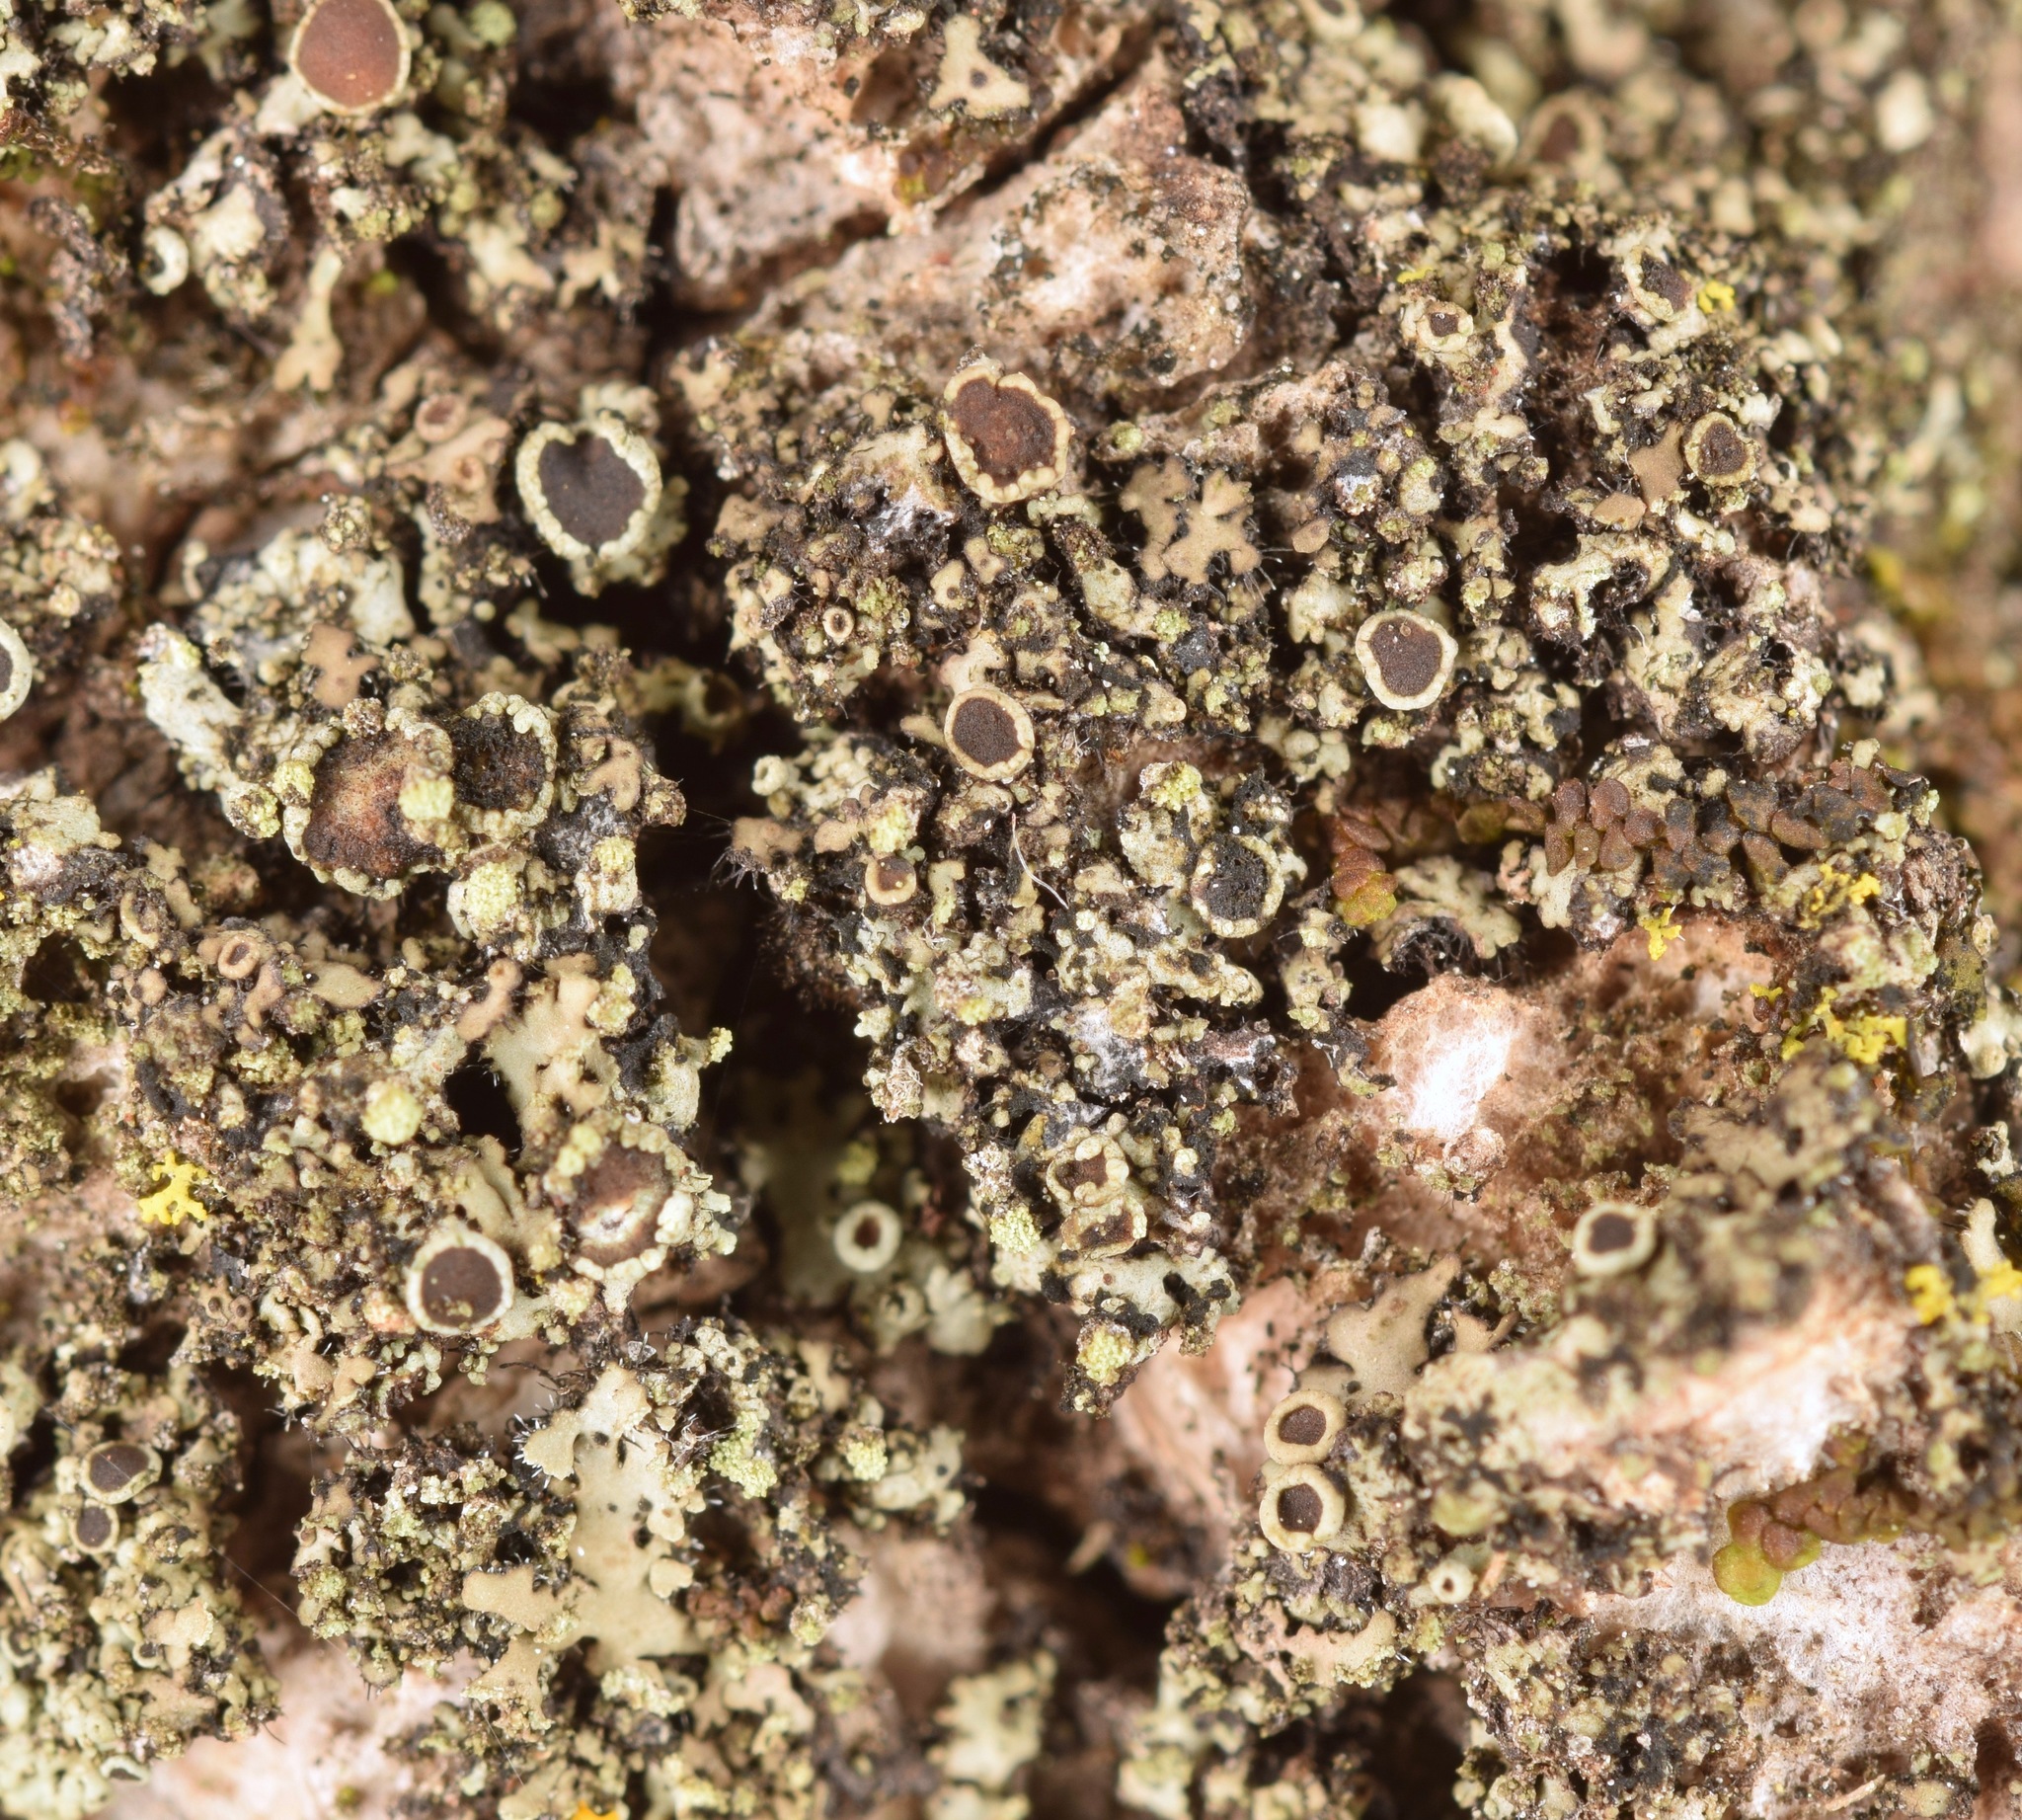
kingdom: Fungi
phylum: Ascomycota
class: Lecanoromycetes
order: Caliciales
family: Physciaceae
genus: Phaeophyscia
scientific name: Phaeophyscia
